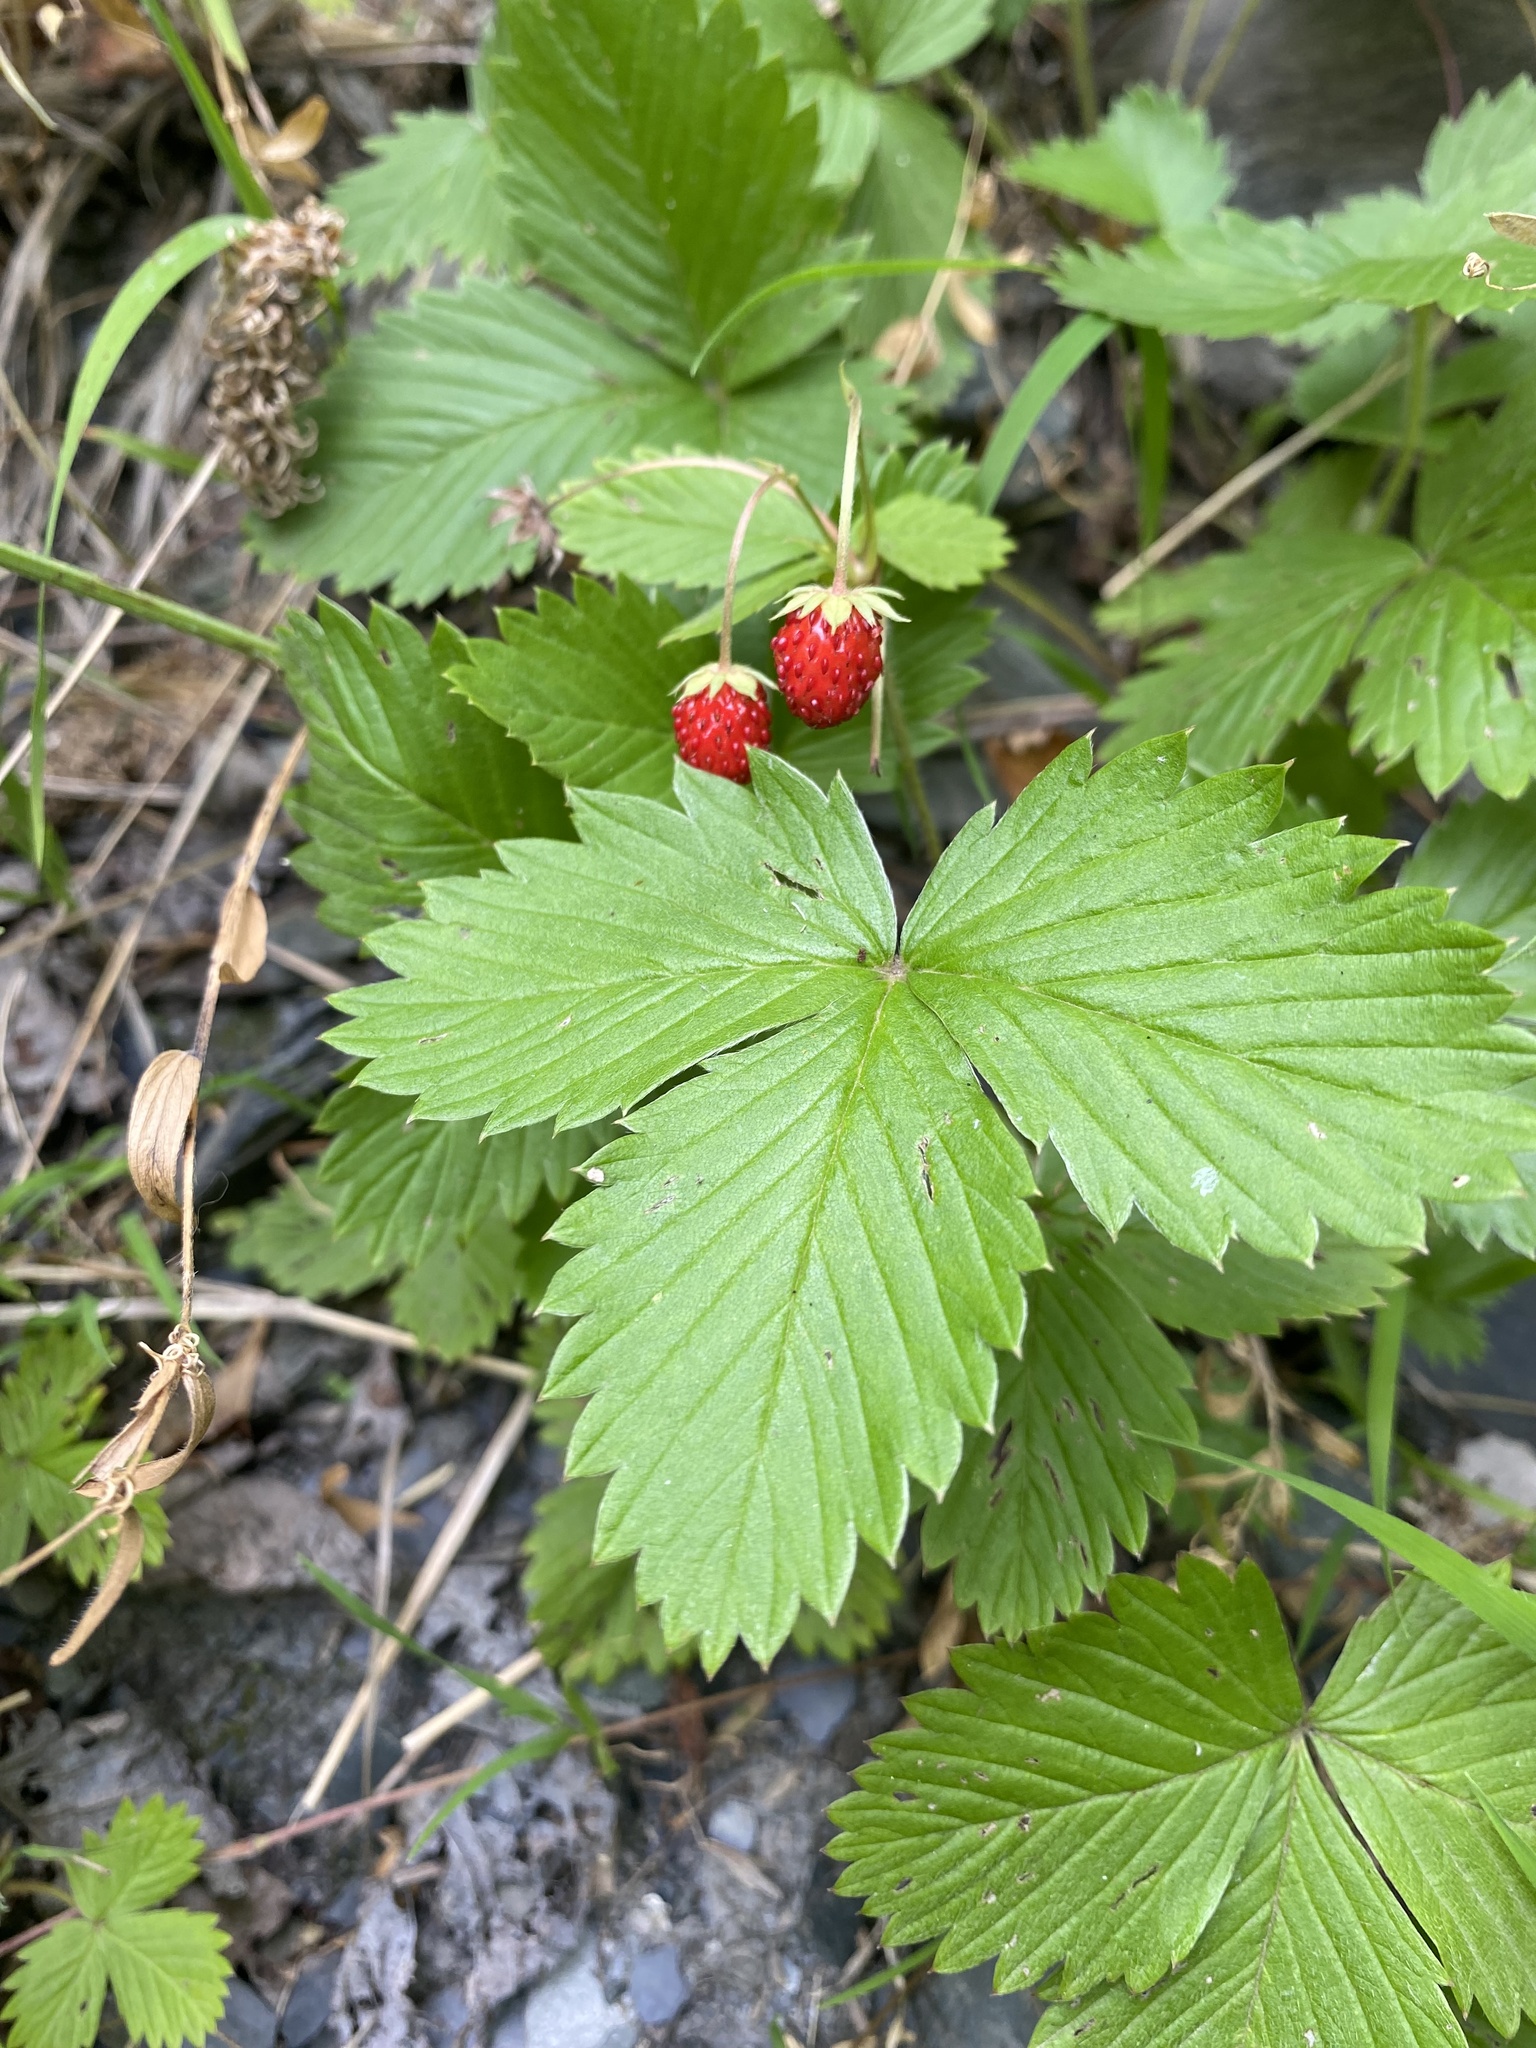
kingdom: Plantae
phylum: Tracheophyta
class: Magnoliopsida
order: Rosales
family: Rosaceae
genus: Fragaria
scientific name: Fragaria vesca
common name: Wild strawberry
